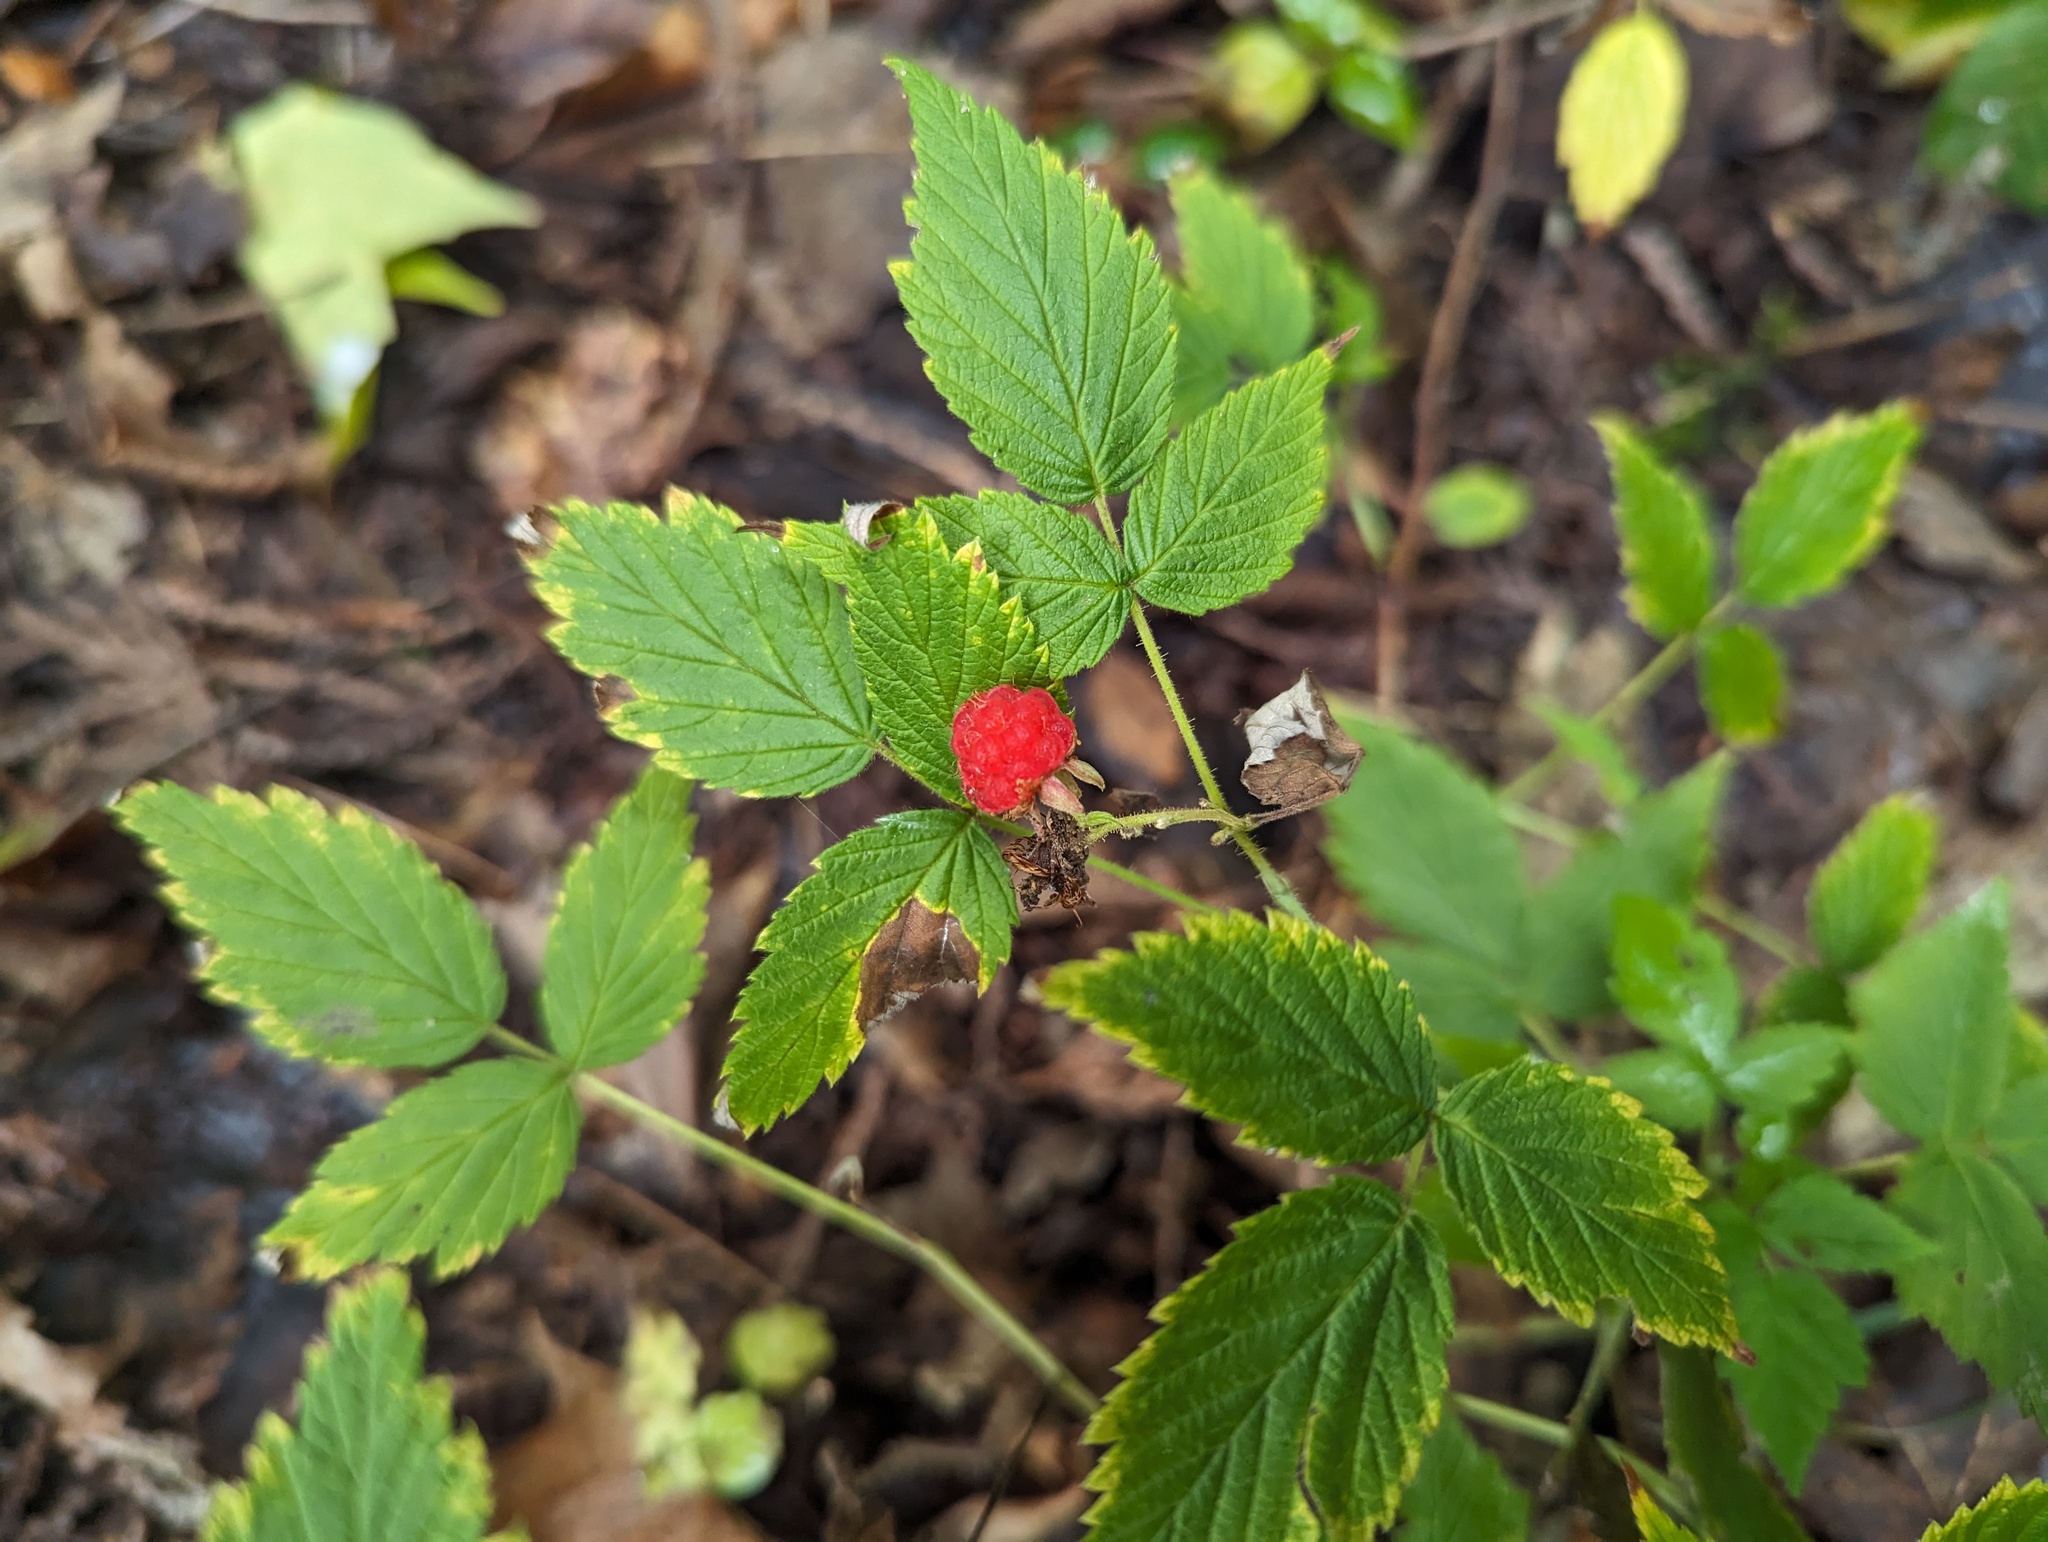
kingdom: Plantae
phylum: Tracheophyta
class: Magnoliopsida
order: Rosales
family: Rosaceae
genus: Rubus
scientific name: Rubus idaeus
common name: Raspberry
